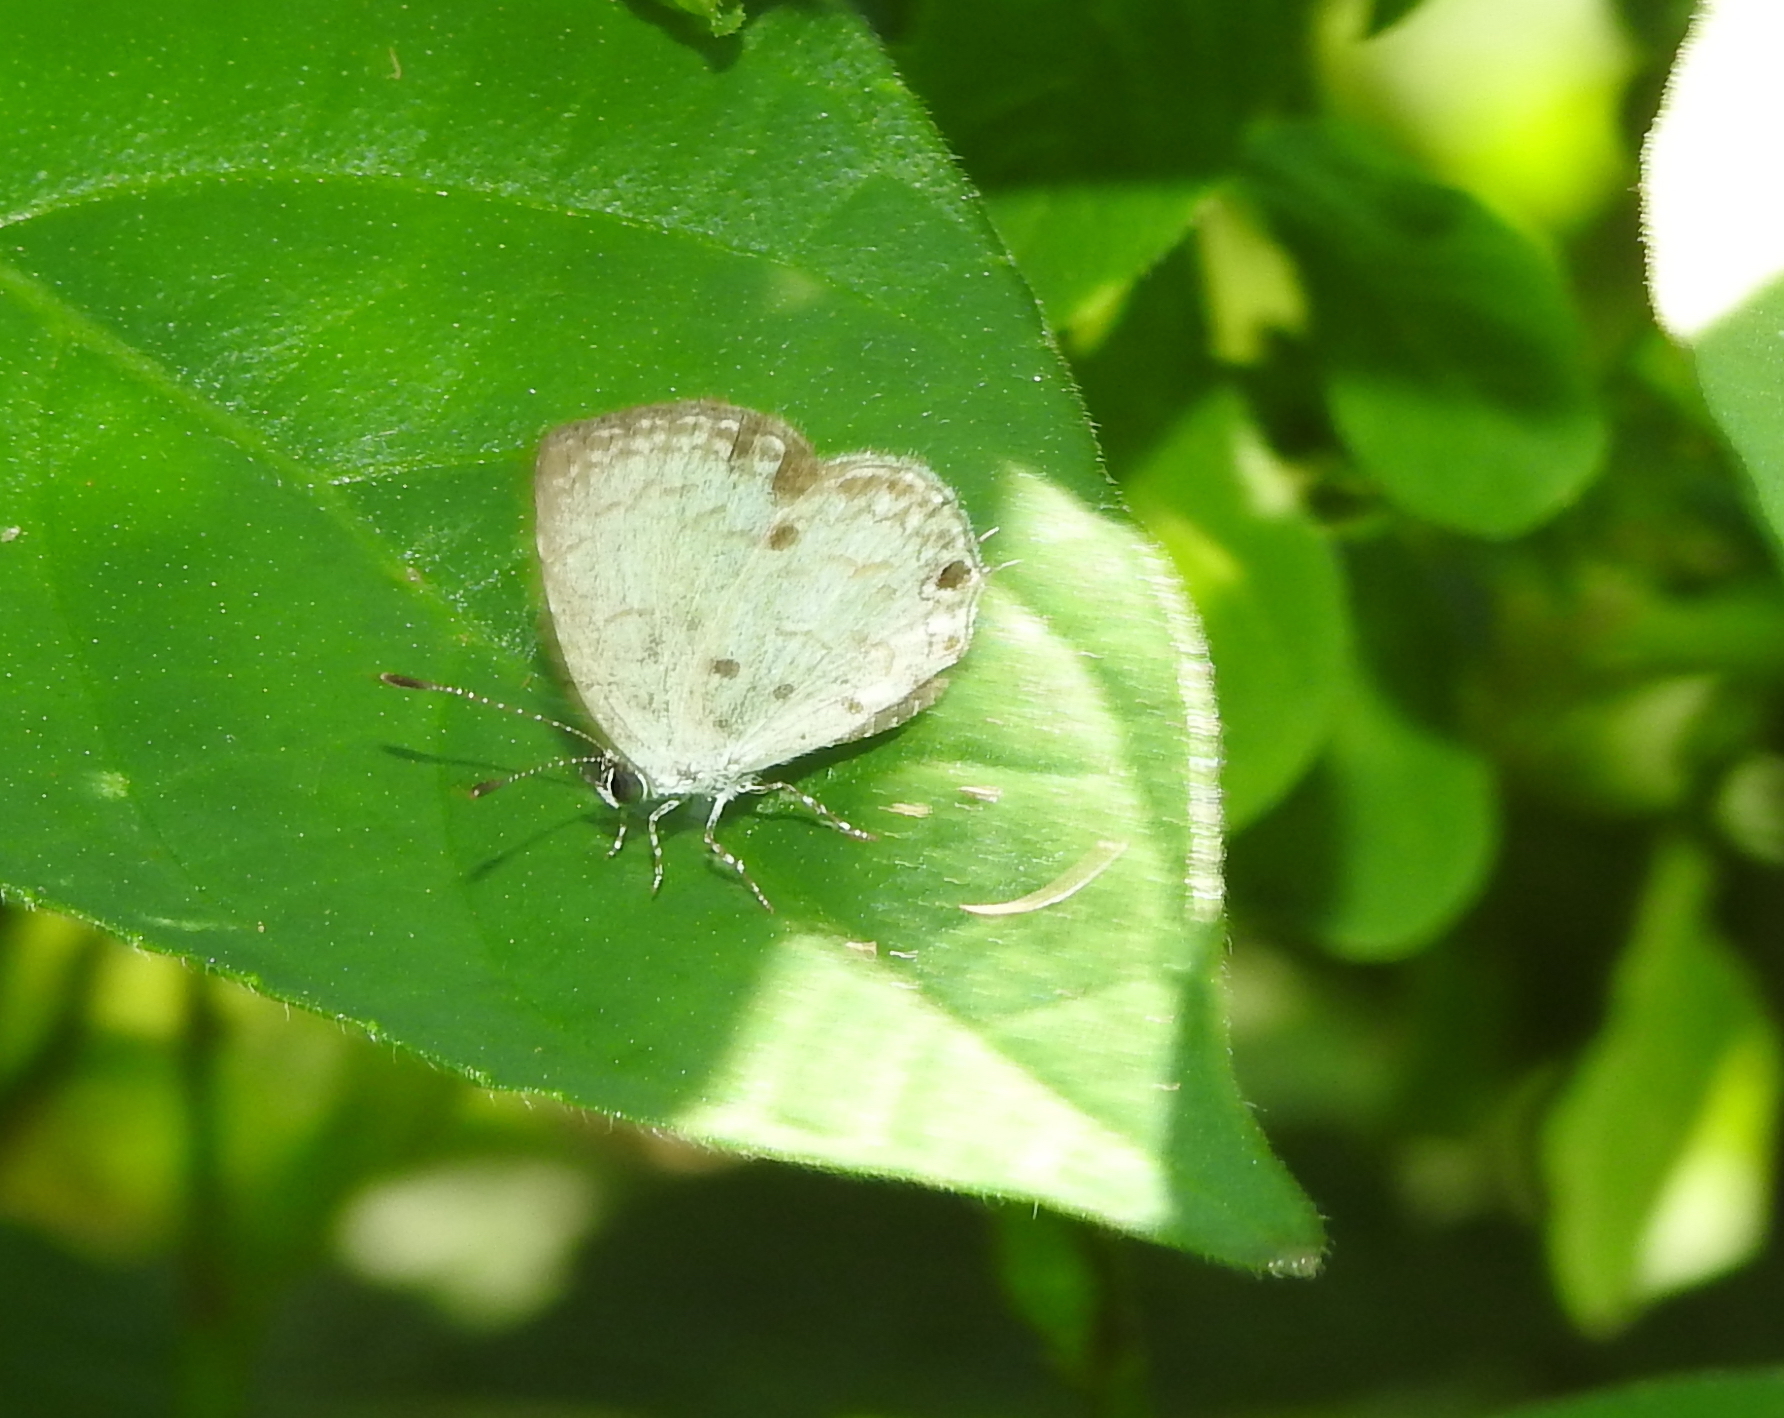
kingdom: Animalia
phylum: Arthropoda
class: Insecta
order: Lepidoptera
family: Lycaenidae
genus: Megisba
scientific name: Megisba malaya
